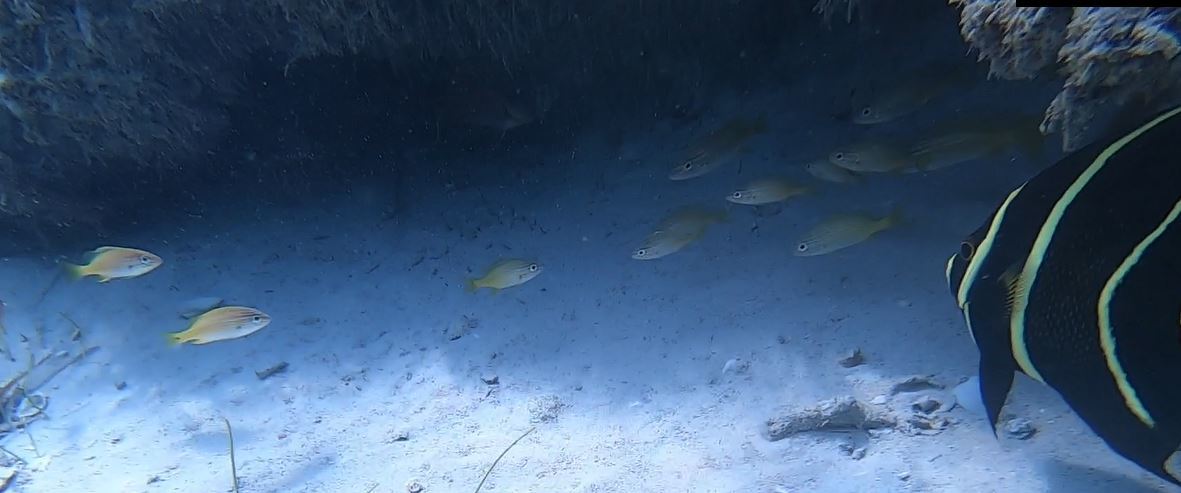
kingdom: Animalia
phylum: Chordata
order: Perciformes
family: Pomacanthidae
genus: Pomacanthus
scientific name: Pomacanthus paru
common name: French angelfish
